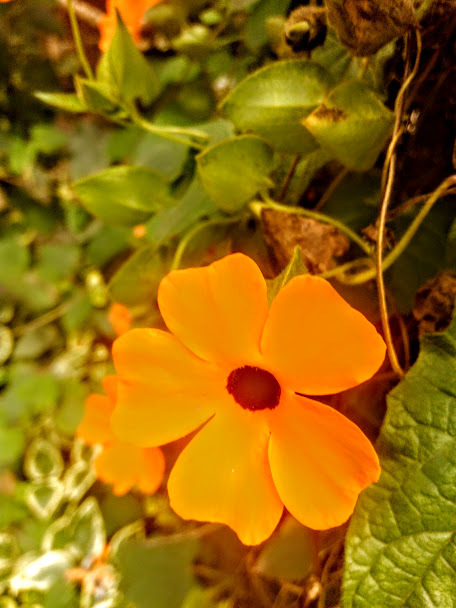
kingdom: Plantae
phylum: Tracheophyta
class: Magnoliopsida
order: Lamiales
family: Acanthaceae
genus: Thunbergia
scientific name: Thunbergia alata
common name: Blackeyed susan vine
